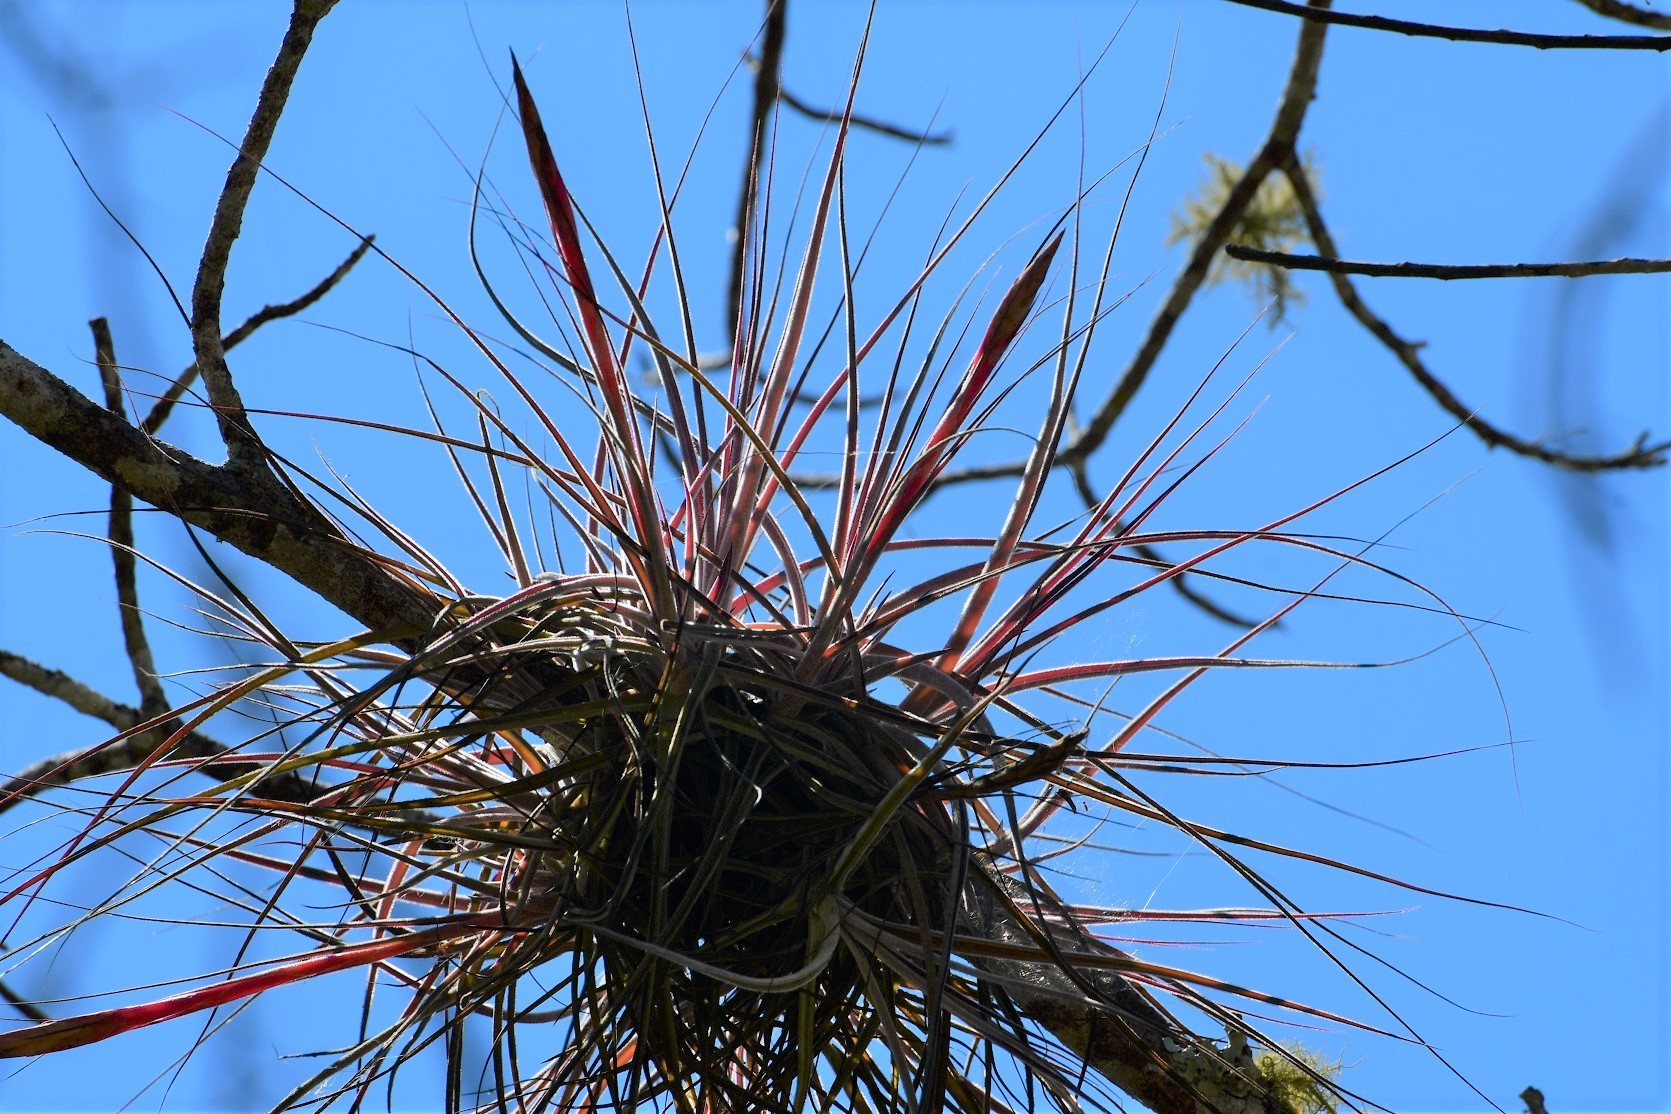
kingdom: Plantae
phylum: Tracheophyta
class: Liliopsida
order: Poales
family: Bromeliaceae
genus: Tillandsia
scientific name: Tillandsia schiedeana
